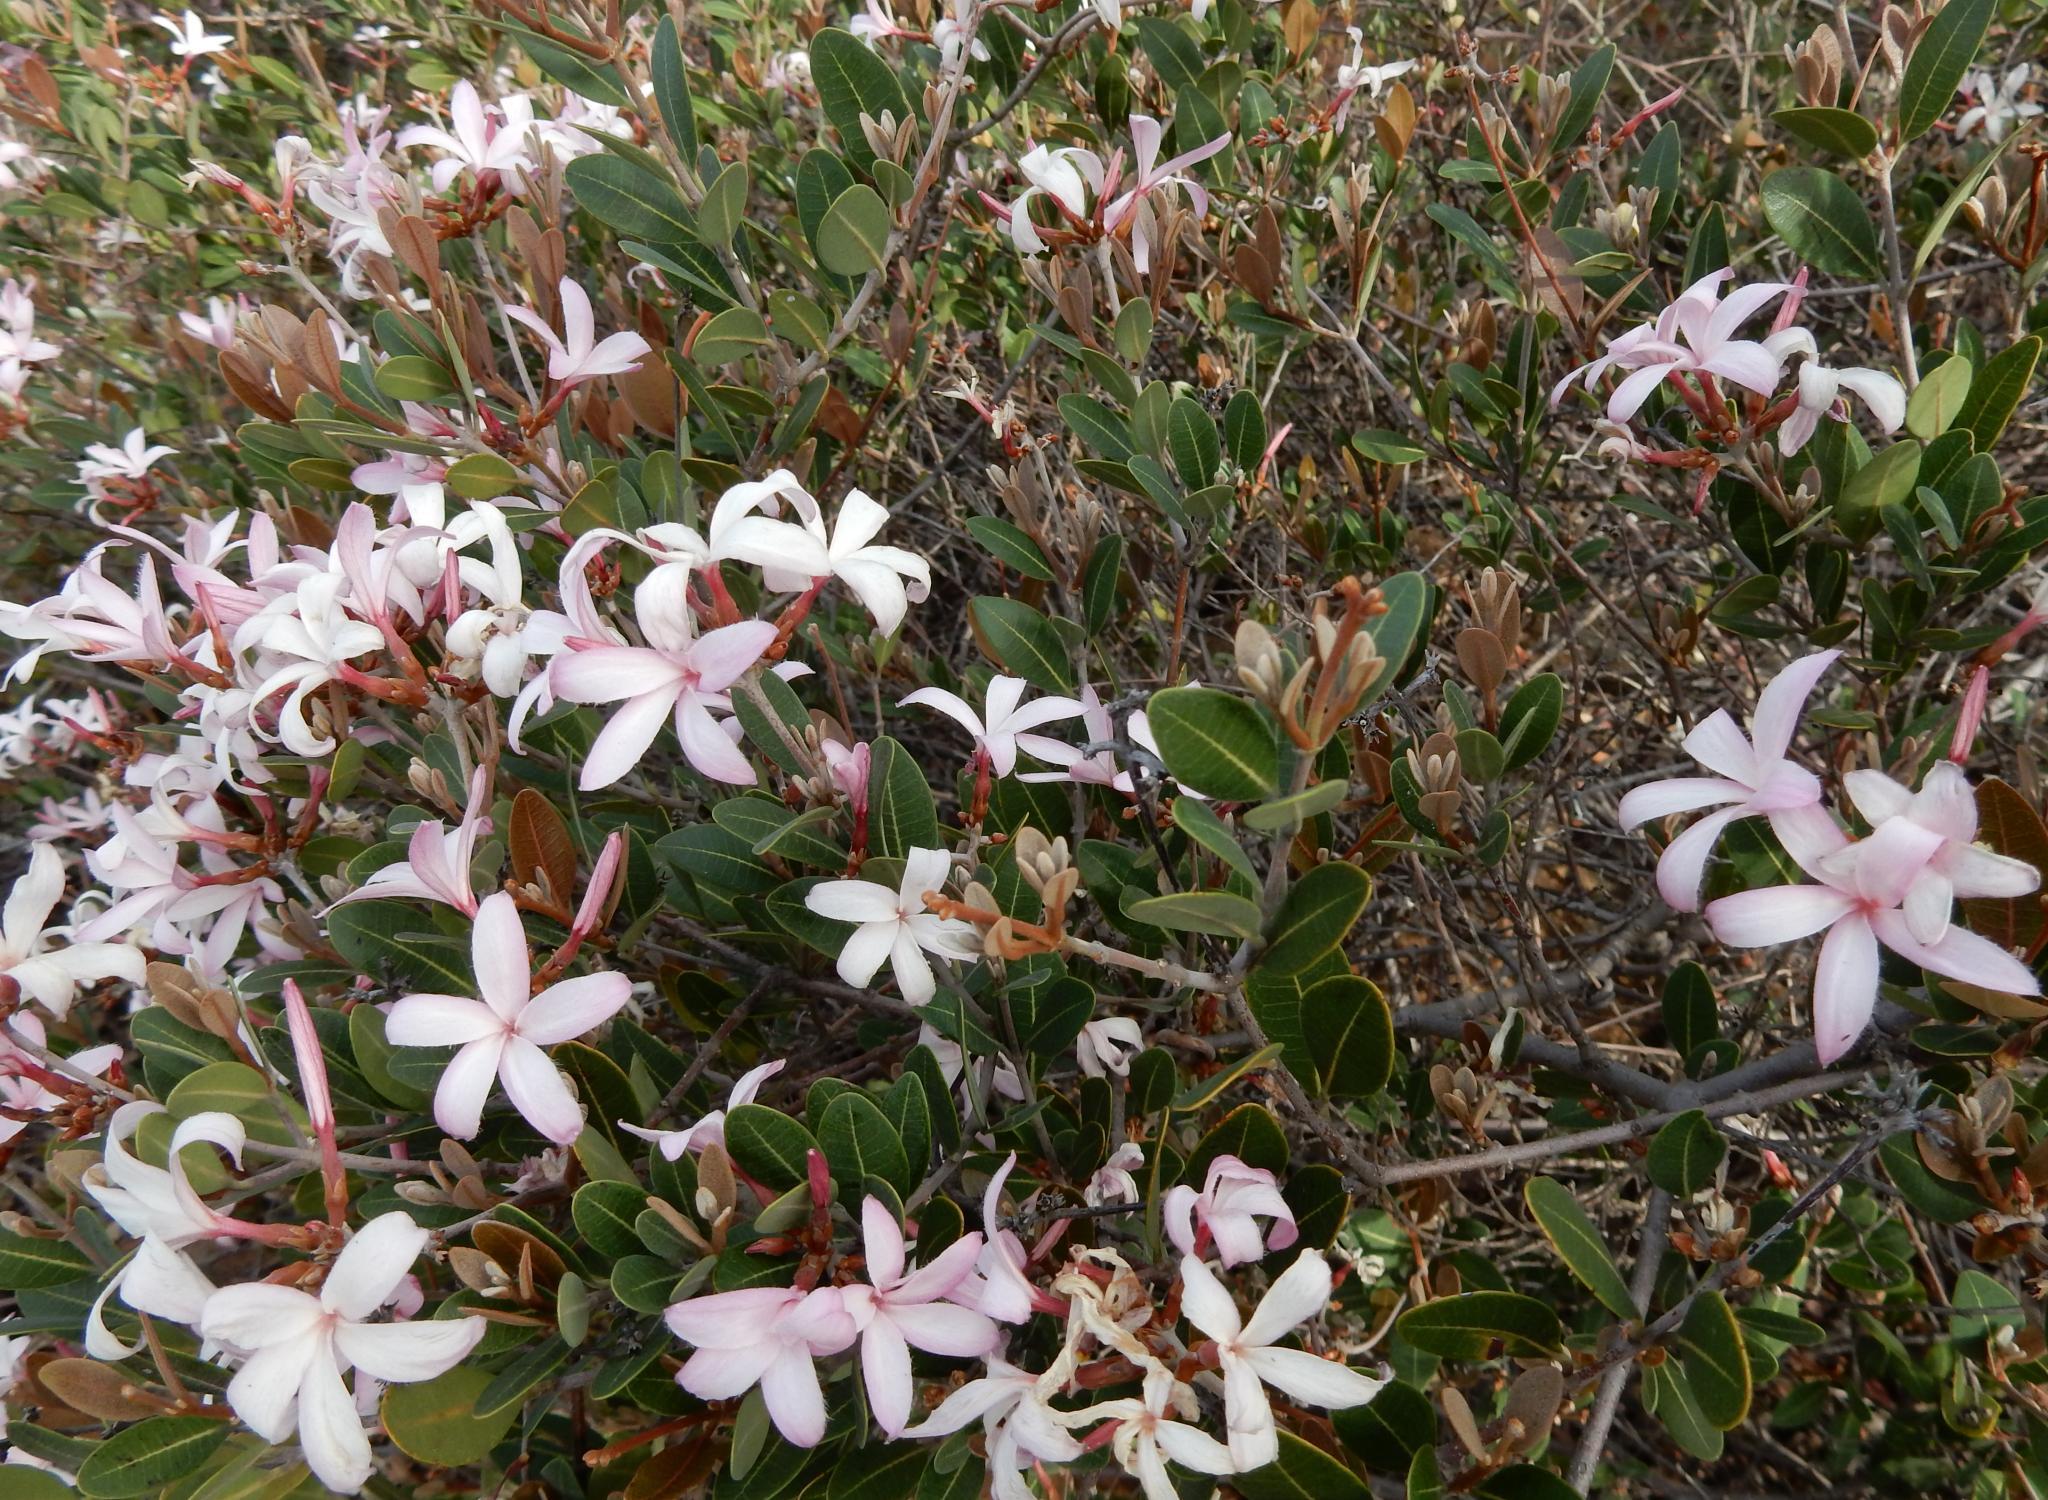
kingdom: Plantae
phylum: Tracheophyta
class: Magnoliopsida
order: Gentianales
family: Apocynaceae
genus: Ancylobothrys
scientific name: Ancylobothrys capensis
